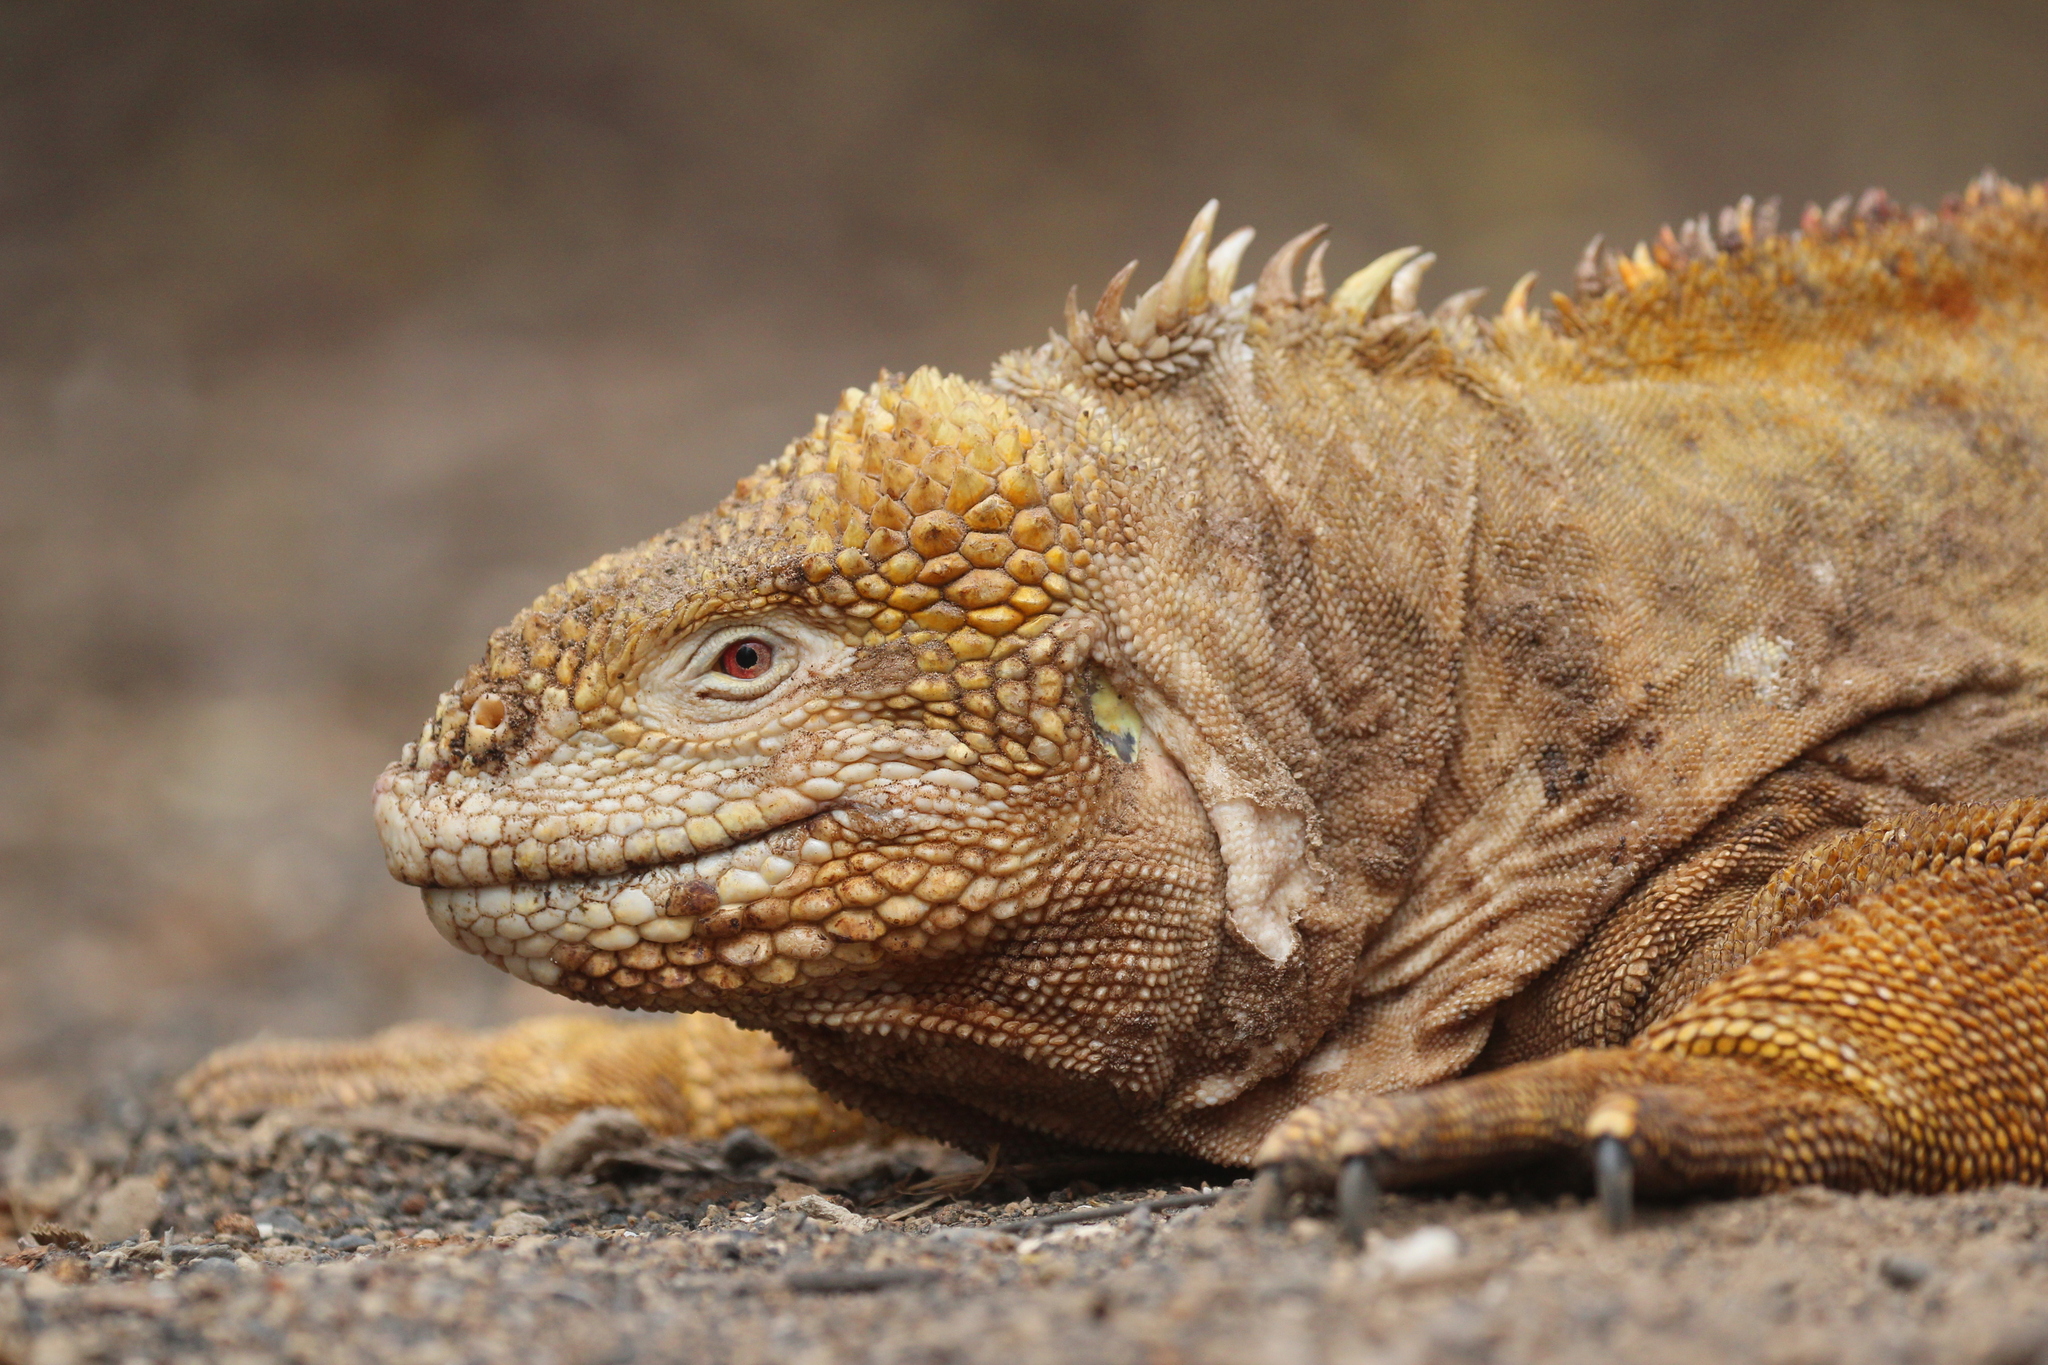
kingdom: Animalia
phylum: Chordata
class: Squamata
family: Iguanidae
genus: Conolophus
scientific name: Conolophus subcristatus
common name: Galapagos land iguana
